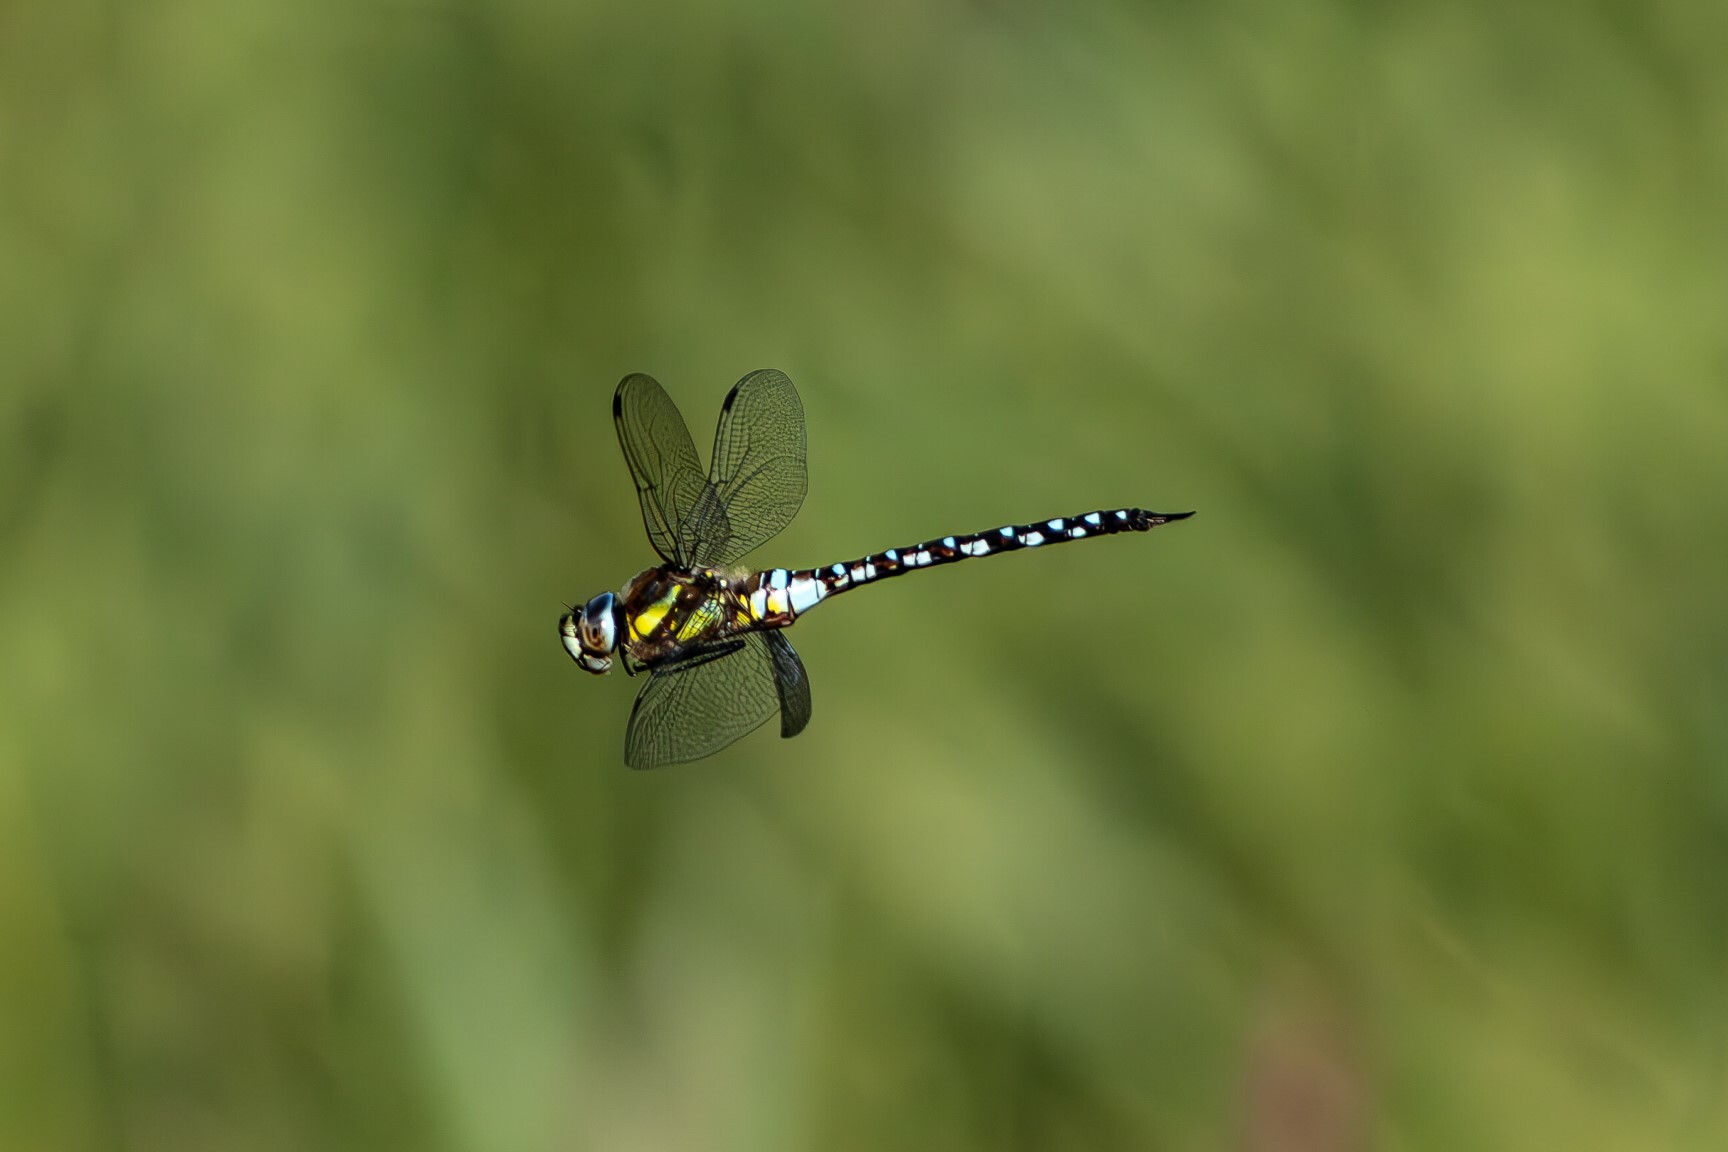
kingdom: Animalia
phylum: Arthropoda
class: Insecta
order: Odonata
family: Aeshnidae
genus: Aeshna
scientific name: Aeshna mixta
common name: Migrant hawker
